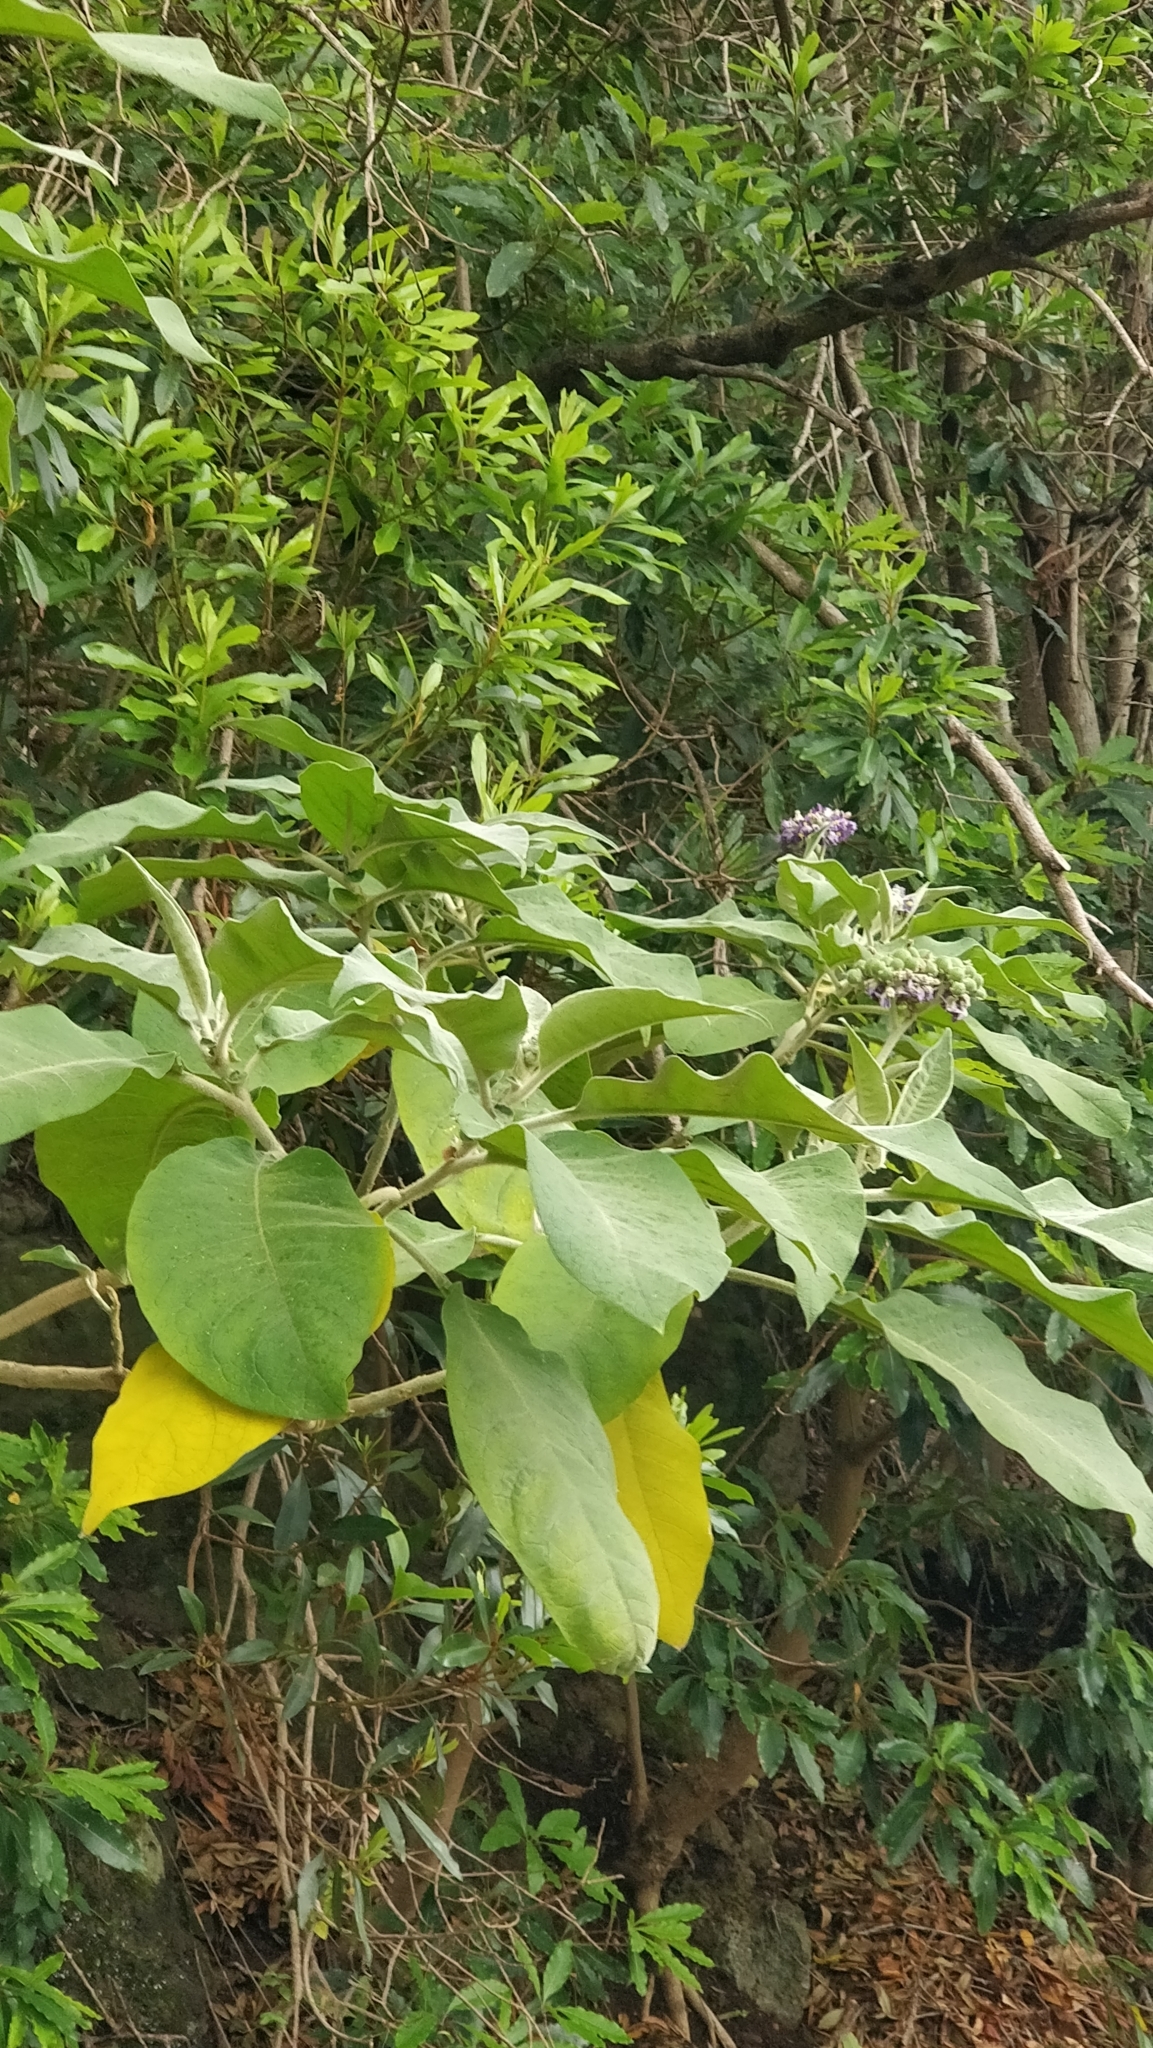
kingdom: Plantae
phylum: Tracheophyta
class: Magnoliopsida
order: Solanales
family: Solanaceae
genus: Solanum
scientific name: Solanum mauritianum
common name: Earleaf nightshade
